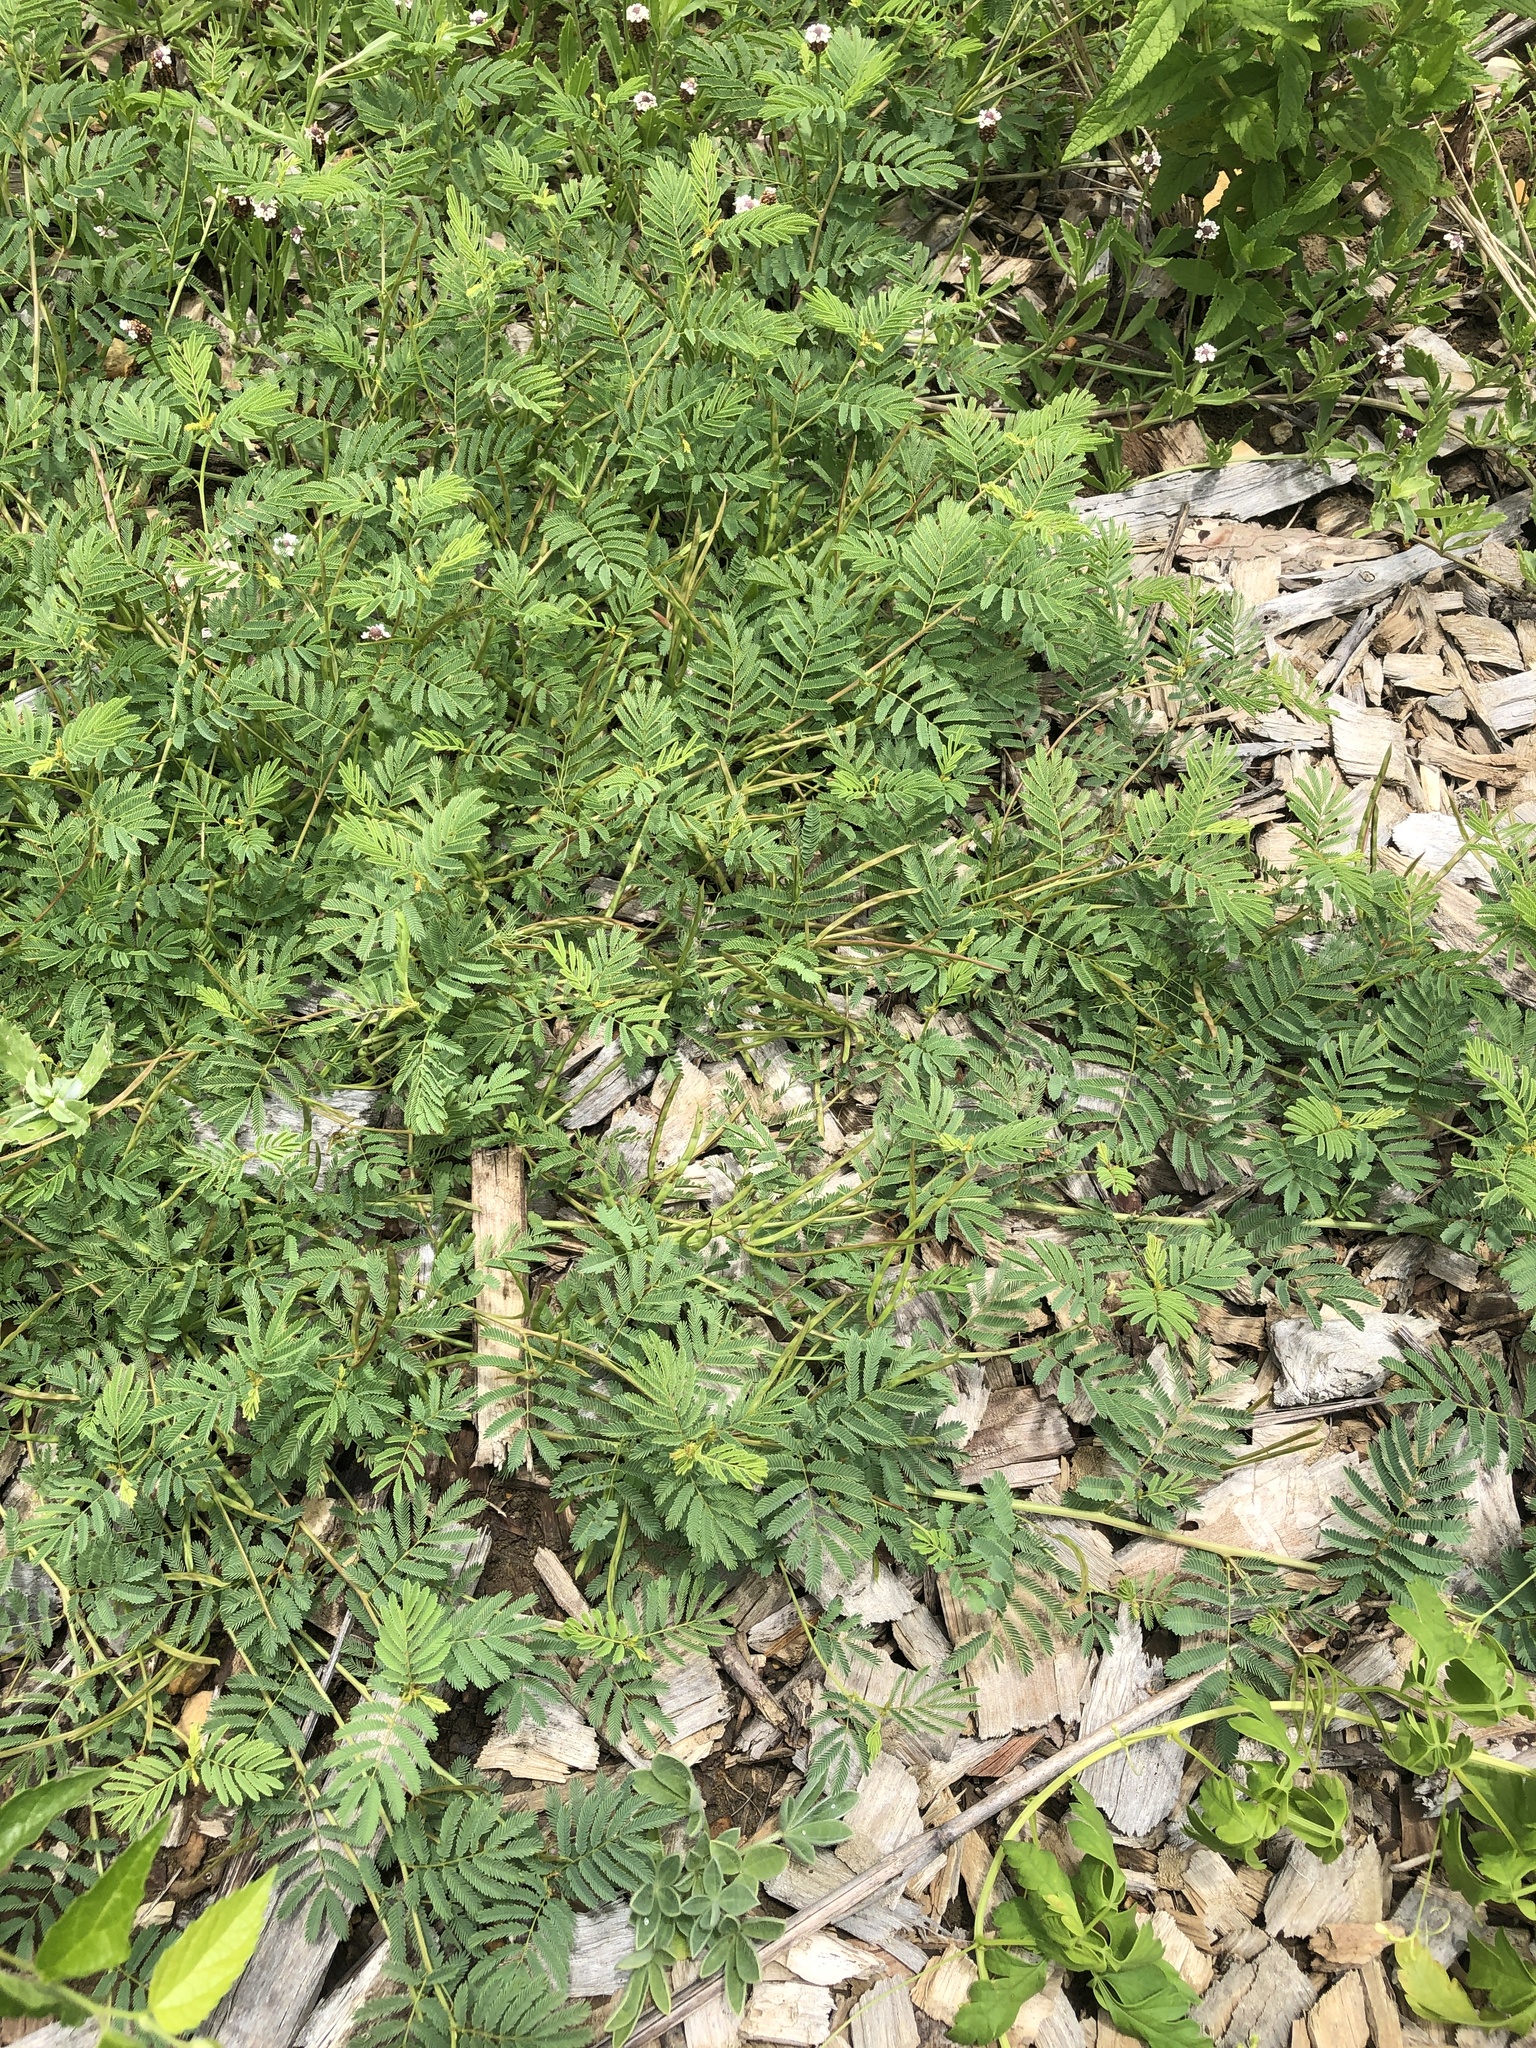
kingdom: Plantae
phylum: Tracheophyta
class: Magnoliopsida
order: Fabales
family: Fabaceae
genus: Desmanthus
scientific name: Desmanthus leptolobus
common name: Prairie-mimosa
